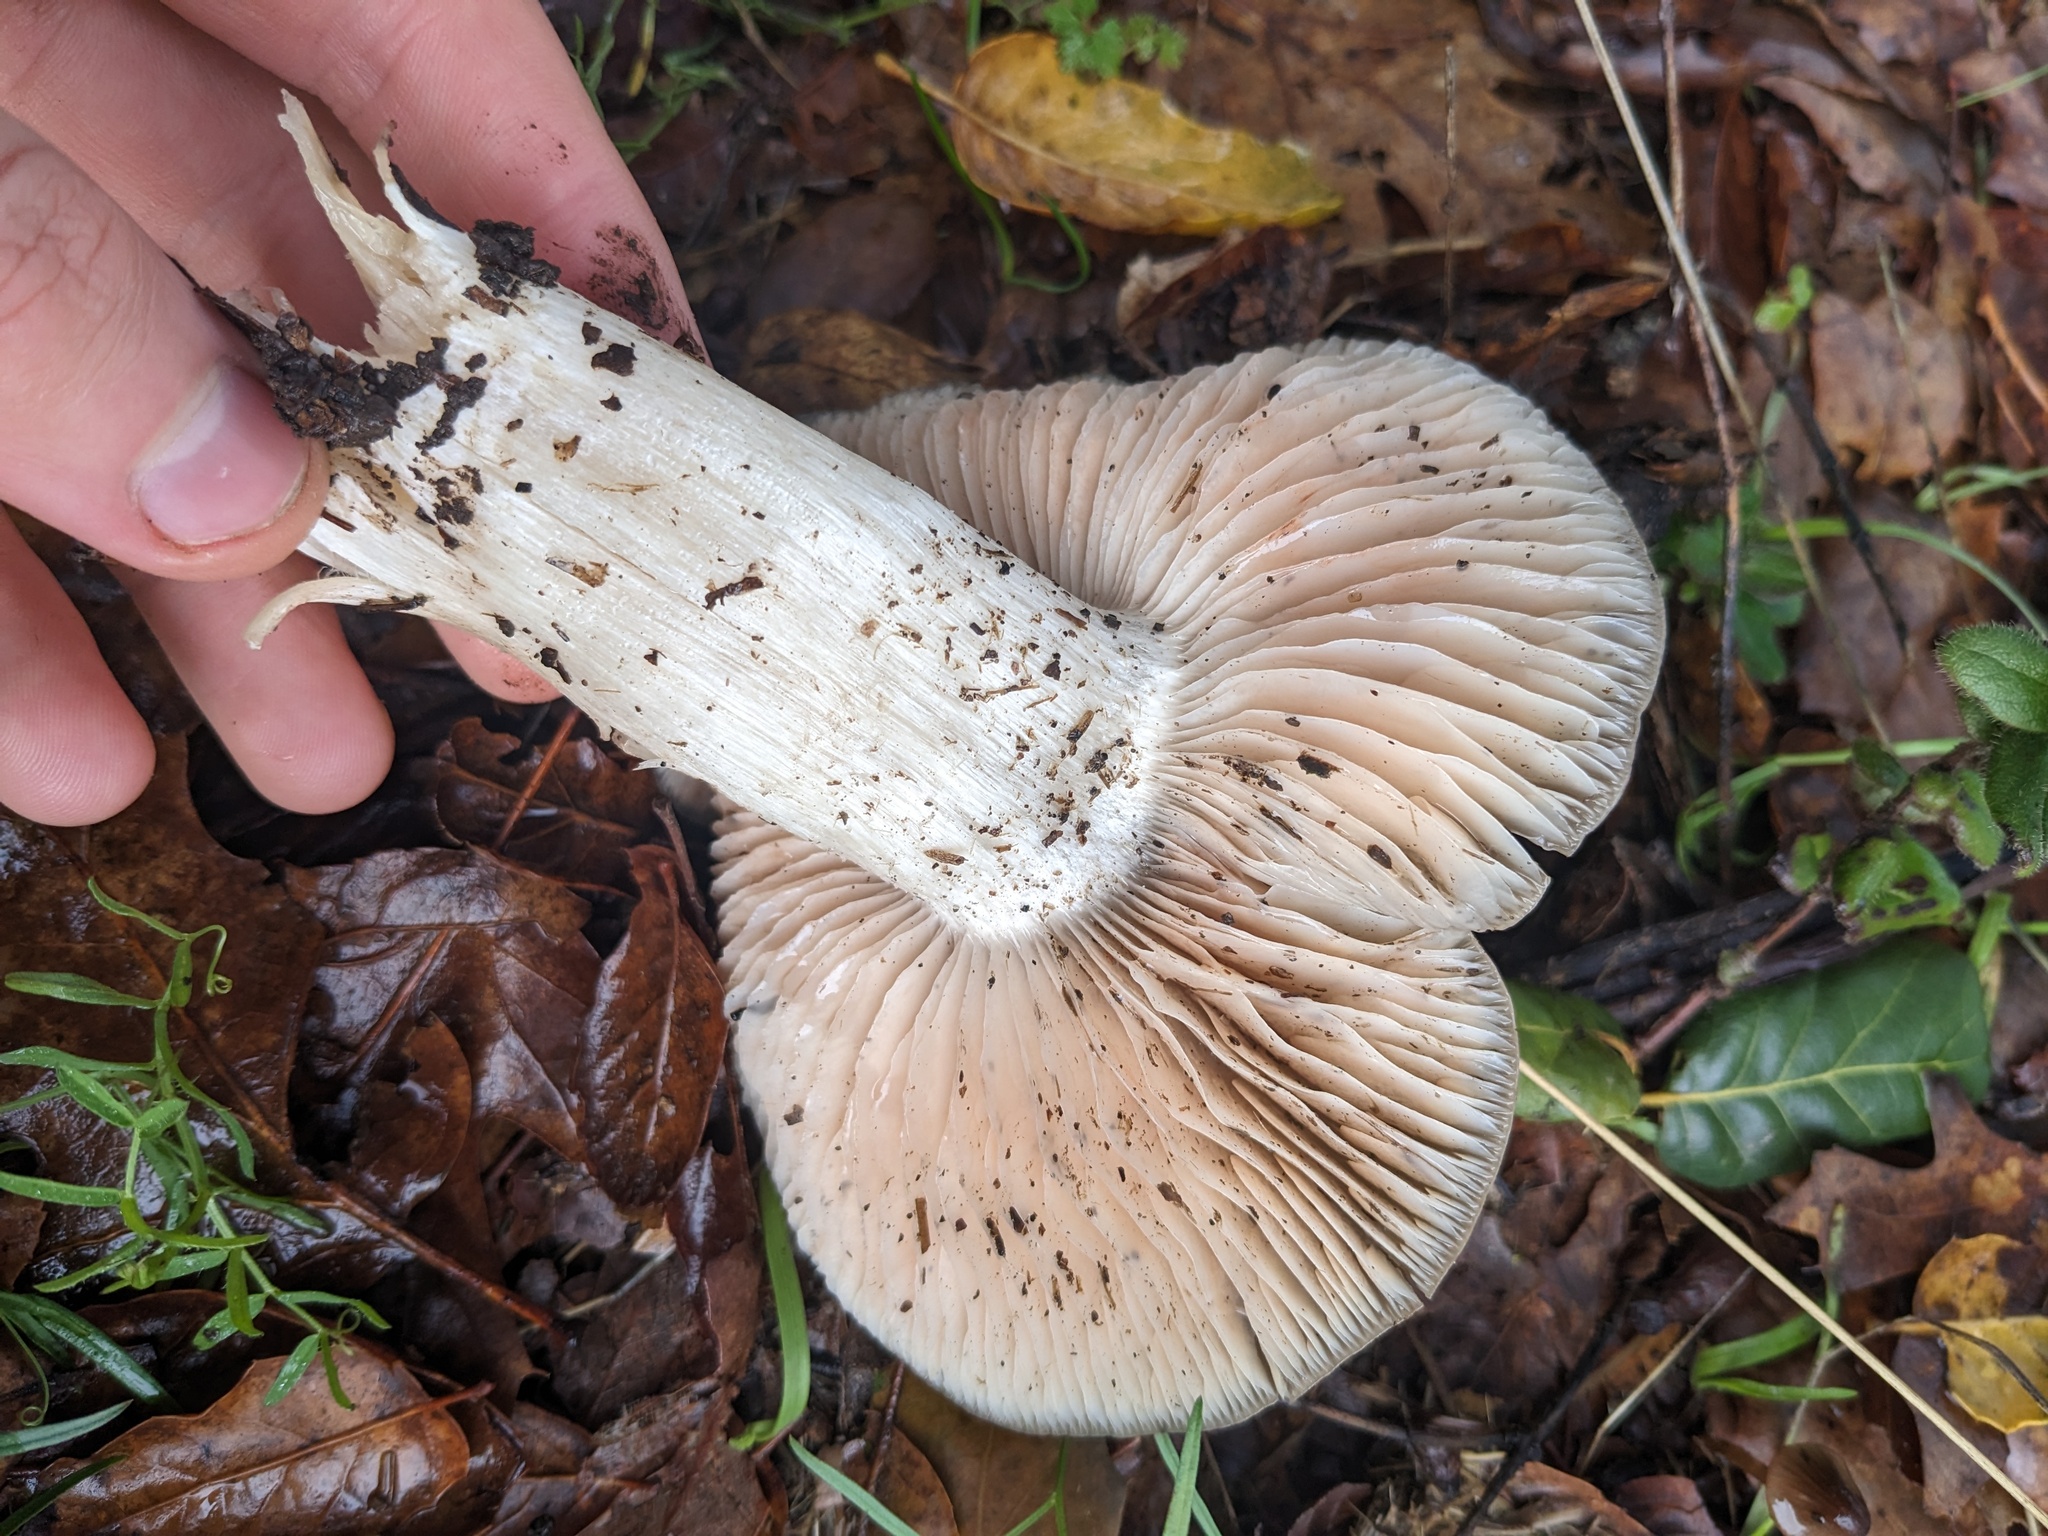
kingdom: Fungi
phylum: Basidiomycota
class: Agaricomycetes
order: Agaricales
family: Entolomataceae
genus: Entoloma
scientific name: Entoloma ferruginans
